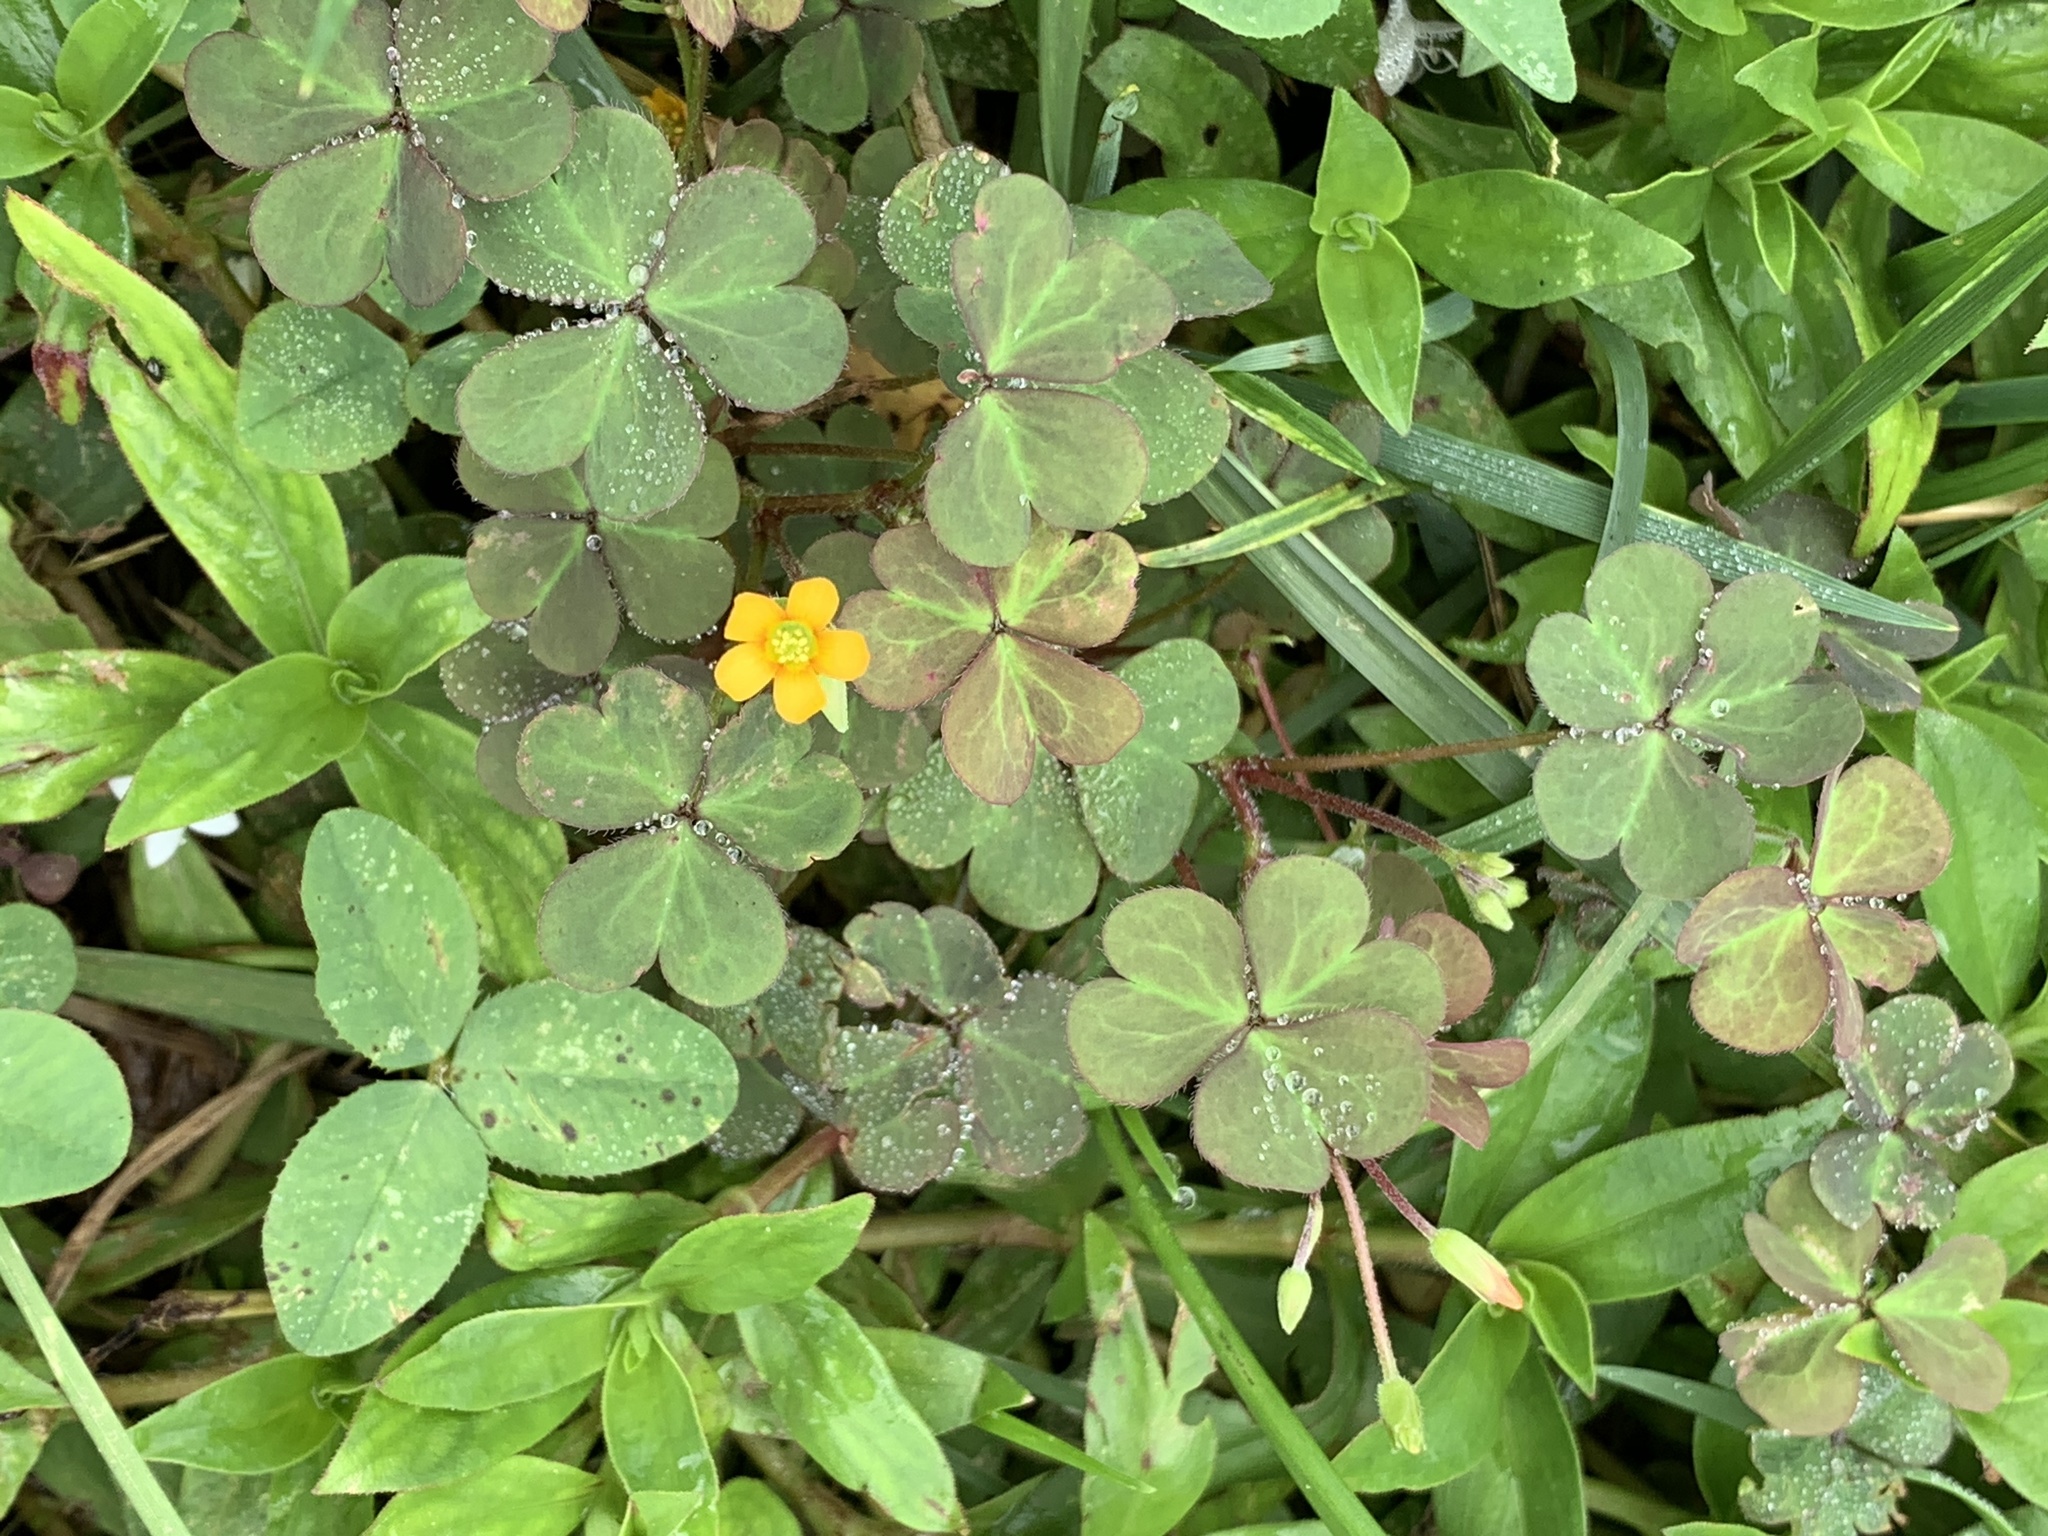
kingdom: Plantae
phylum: Tracheophyta
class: Magnoliopsida
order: Oxalidales
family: Oxalidaceae
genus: Oxalis
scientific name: Oxalis corniculata
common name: Procumbent yellow-sorrel
